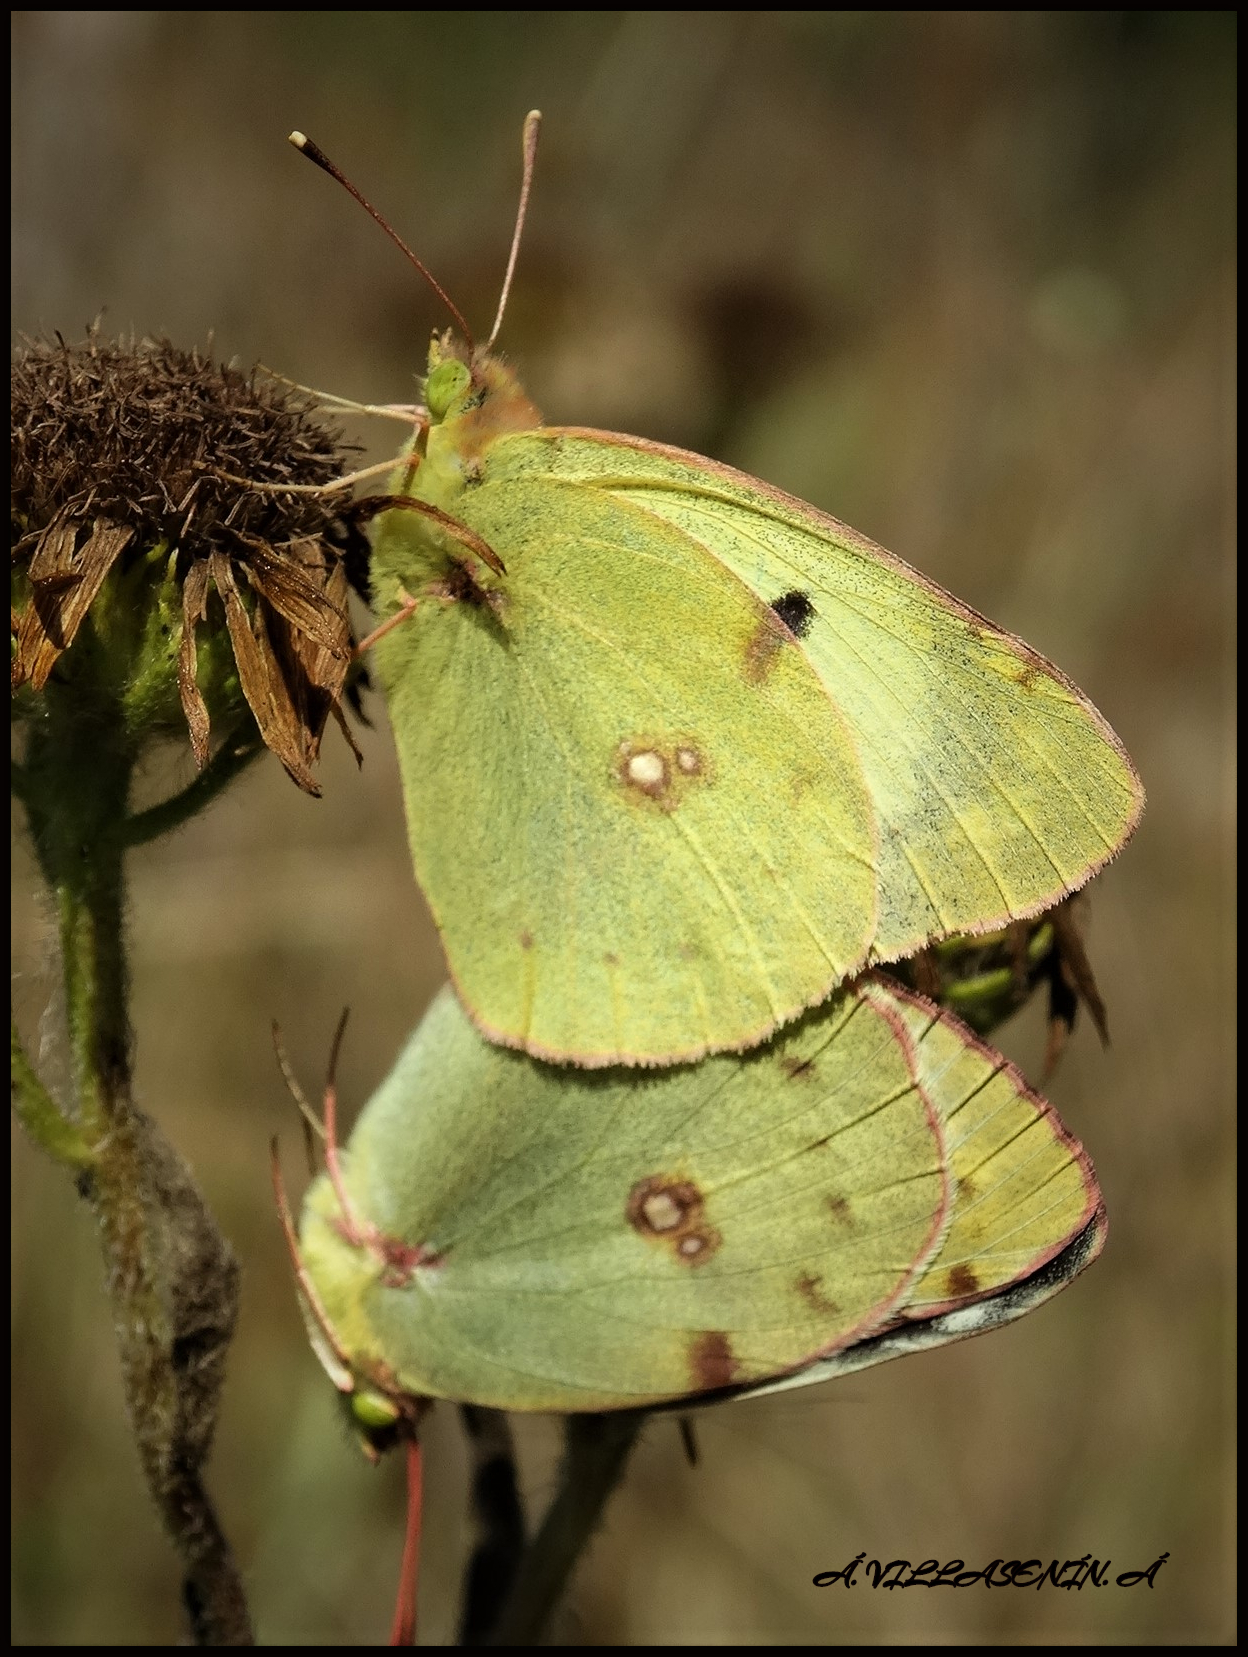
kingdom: Animalia
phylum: Arthropoda
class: Insecta
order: Lepidoptera
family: Pieridae
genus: Colias
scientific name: Colias alfacariensis
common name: Berger's clouded yellow
